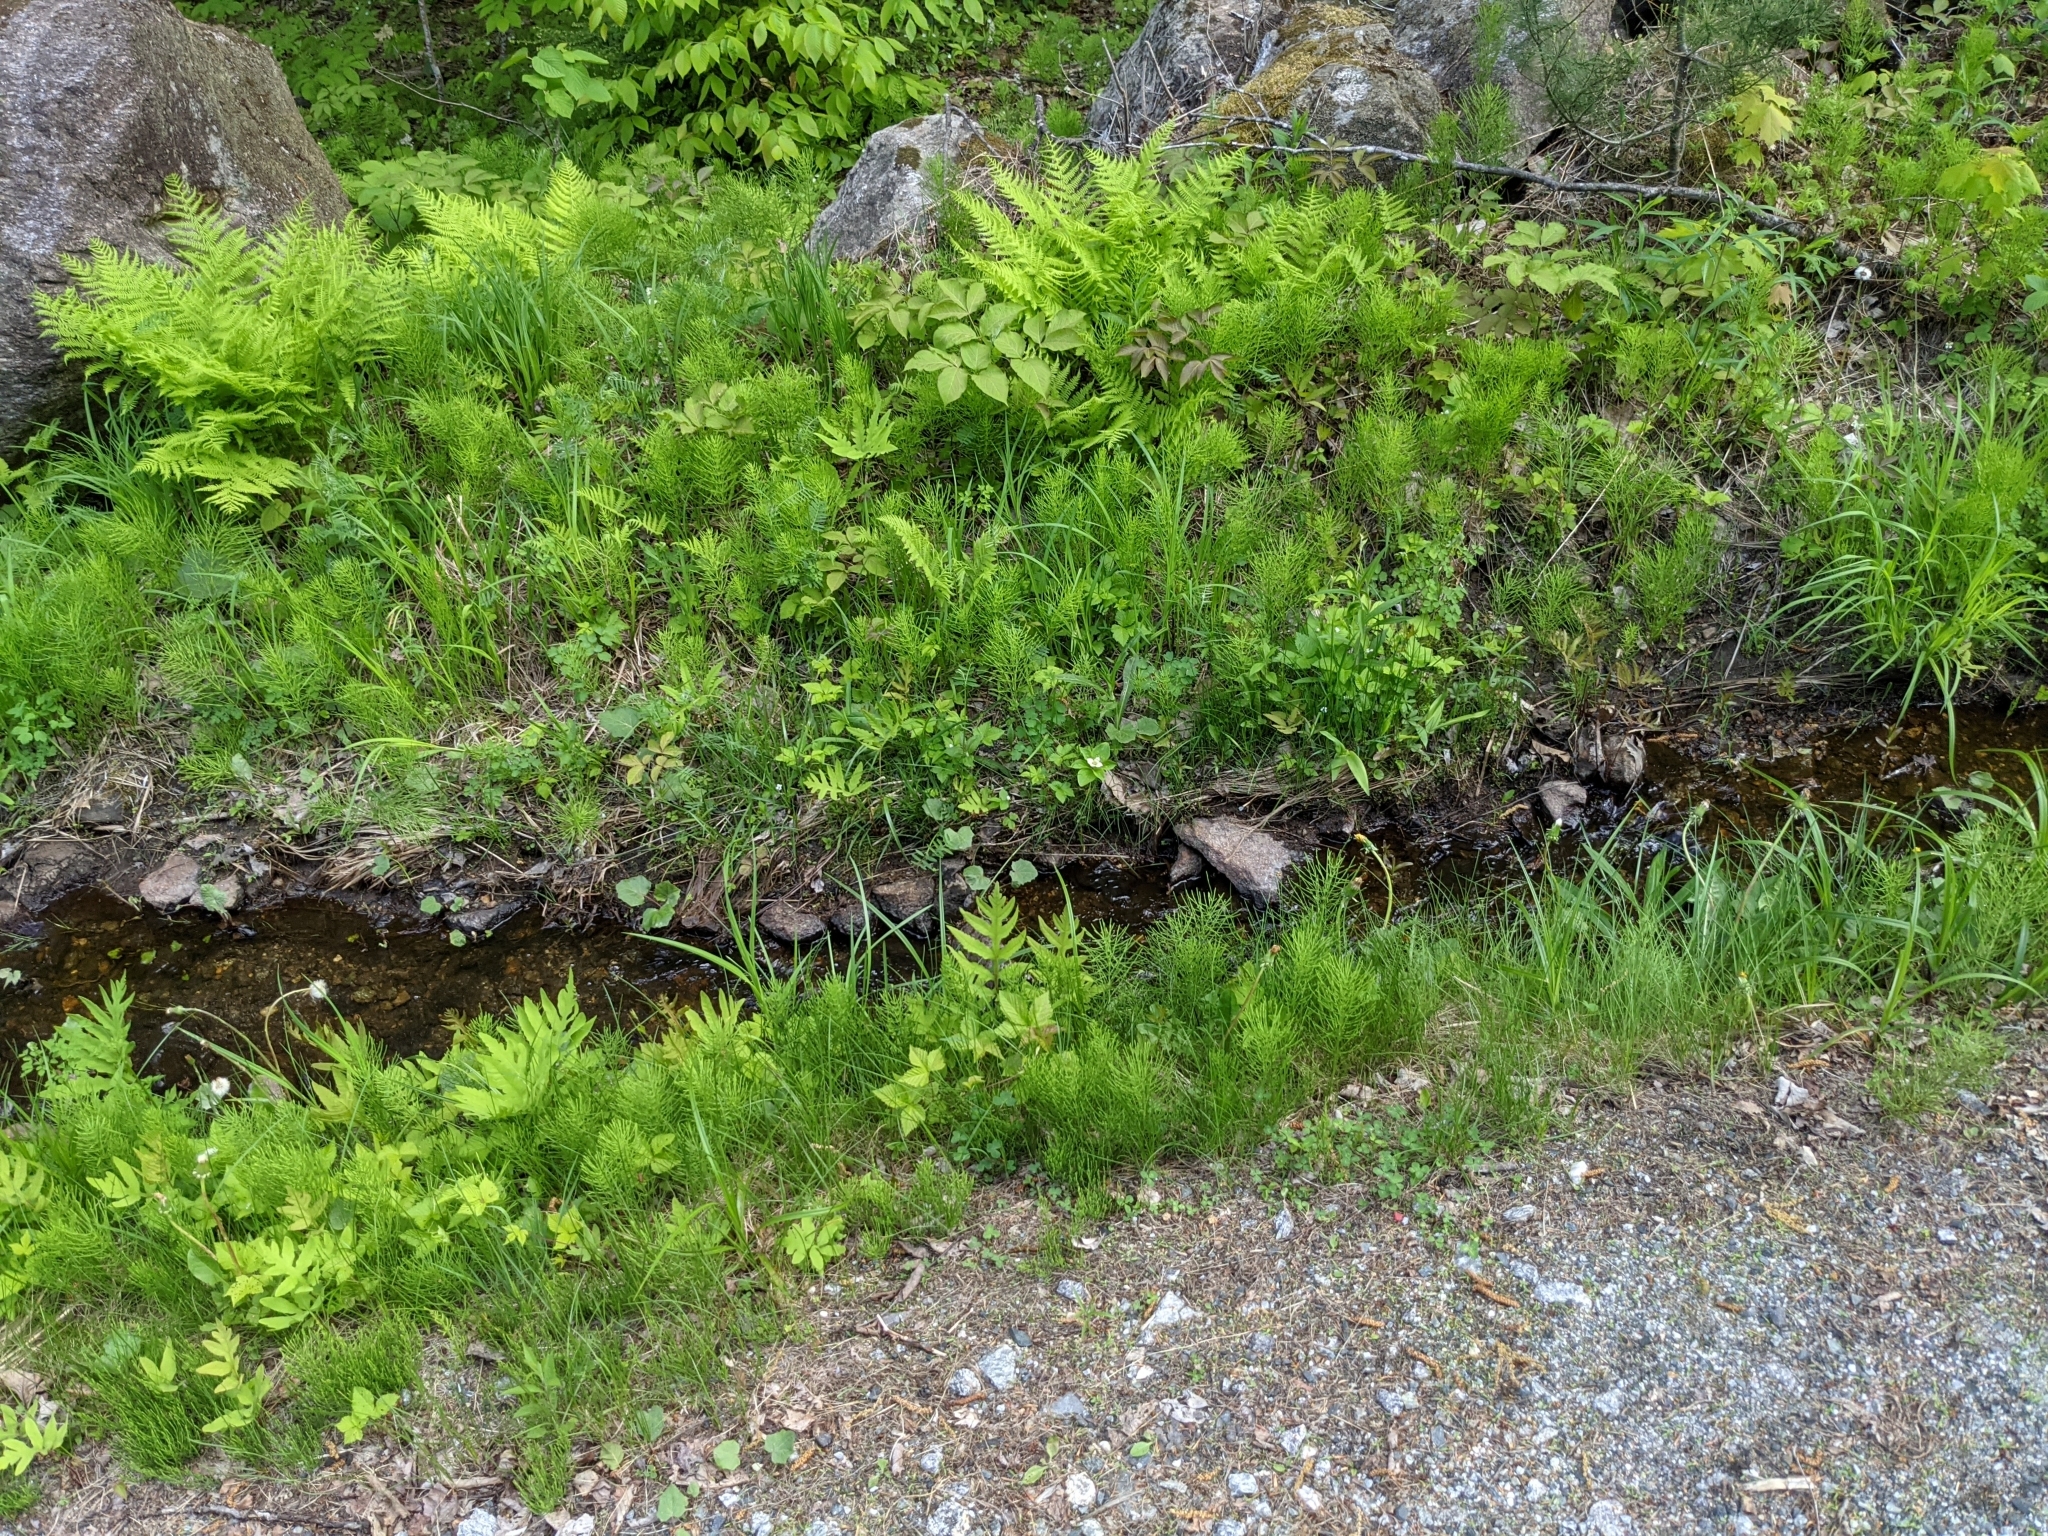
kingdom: Plantae
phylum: Tracheophyta
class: Polypodiopsida
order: Equisetales
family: Equisetaceae
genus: Equisetum
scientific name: Equisetum arvense
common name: Field horsetail
